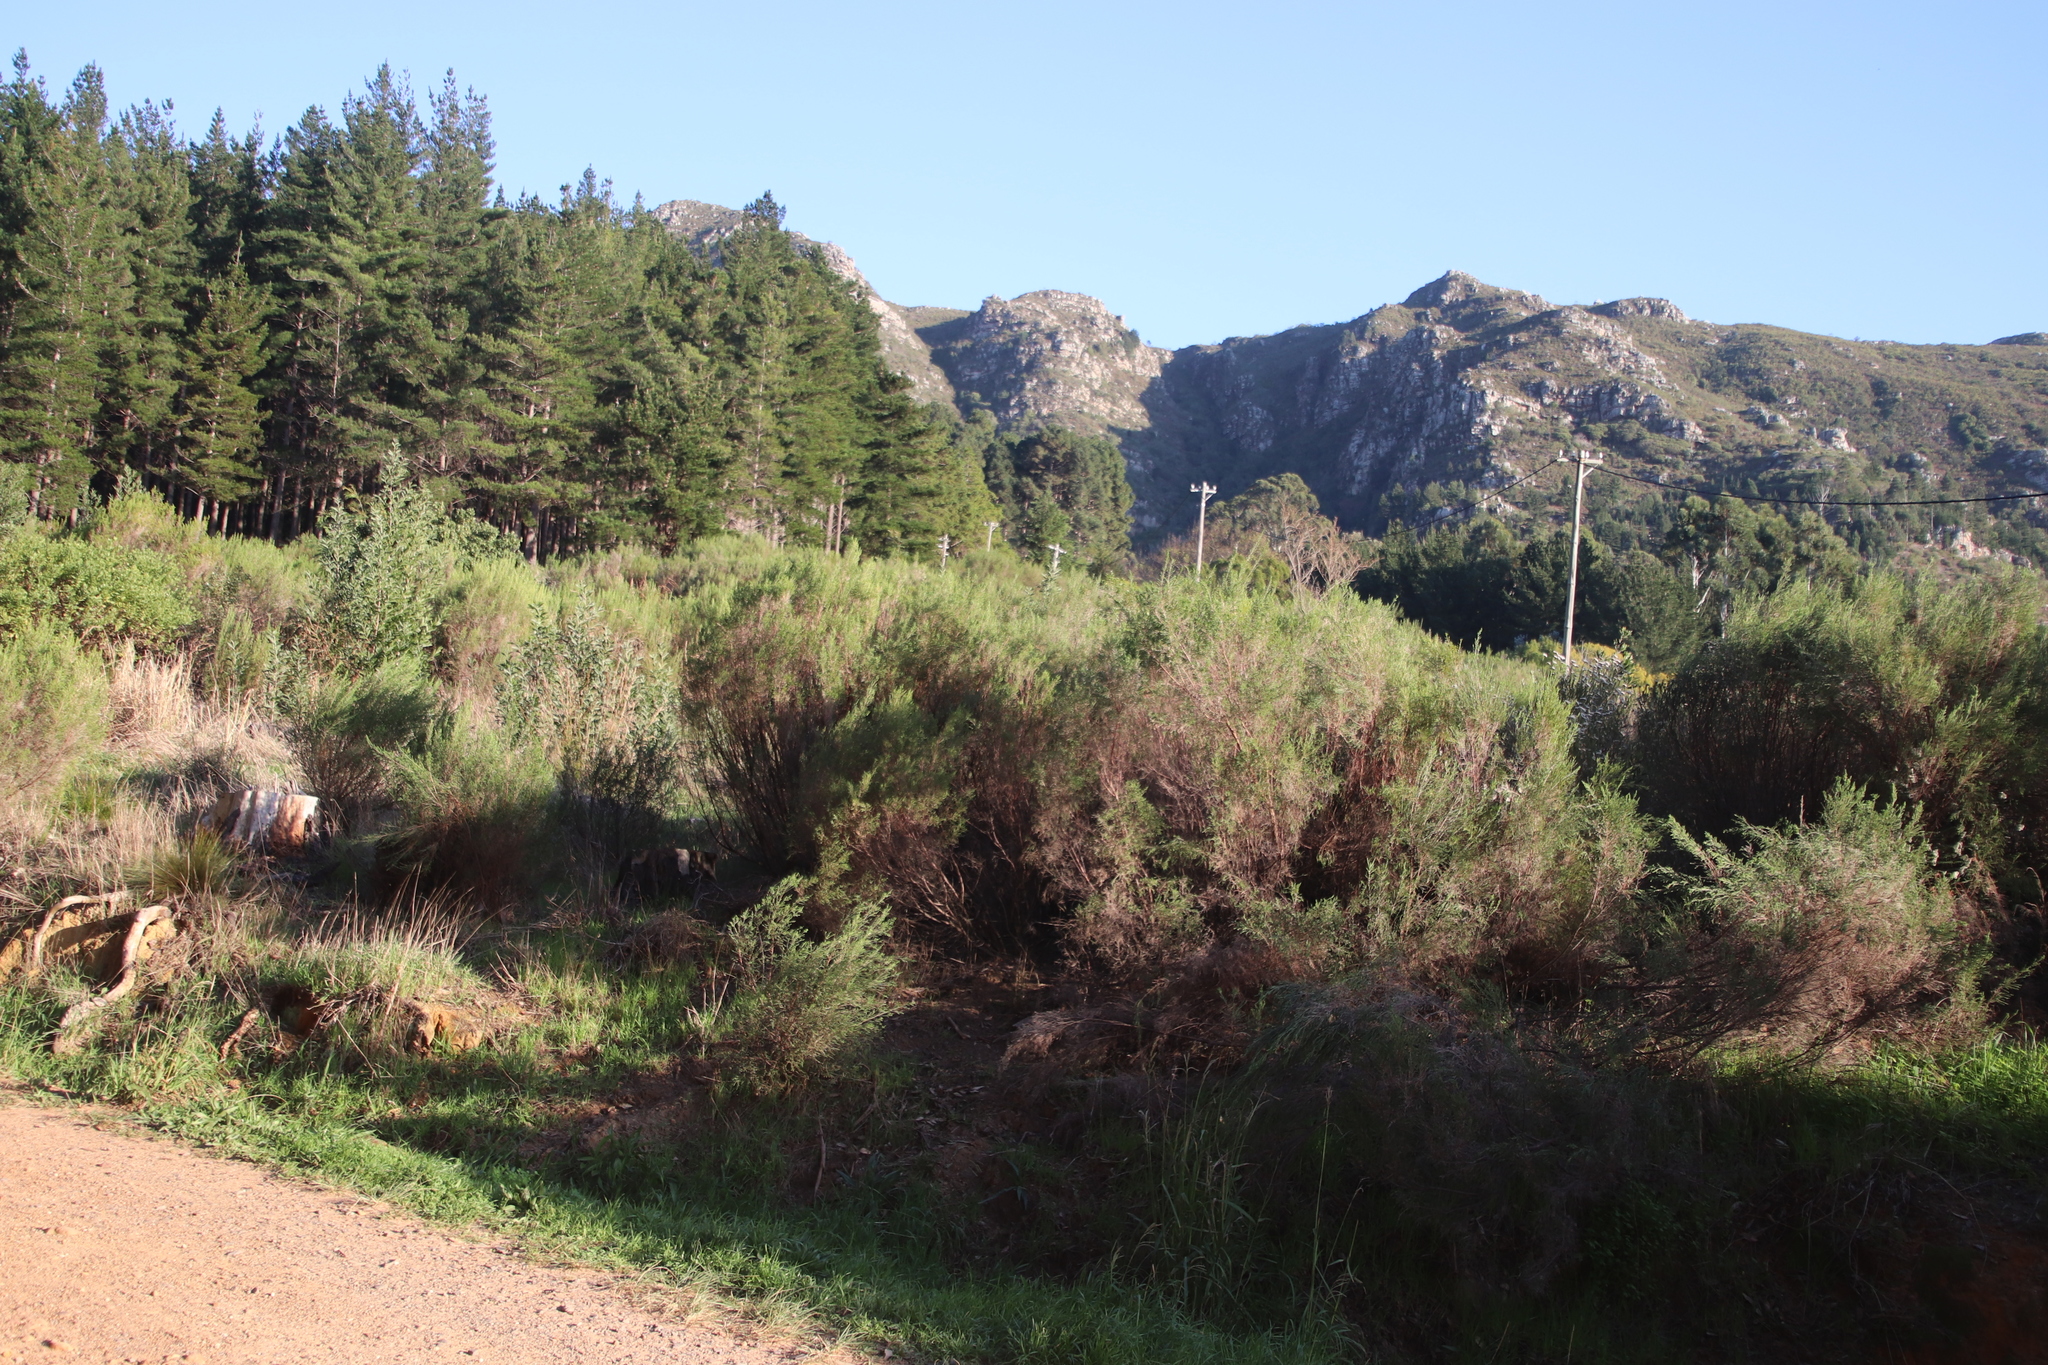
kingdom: Plantae
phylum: Tracheophyta
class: Magnoliopsida
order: Malvales
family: Thymelaeaceae
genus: Passerina
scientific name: Passerina corymbosa
